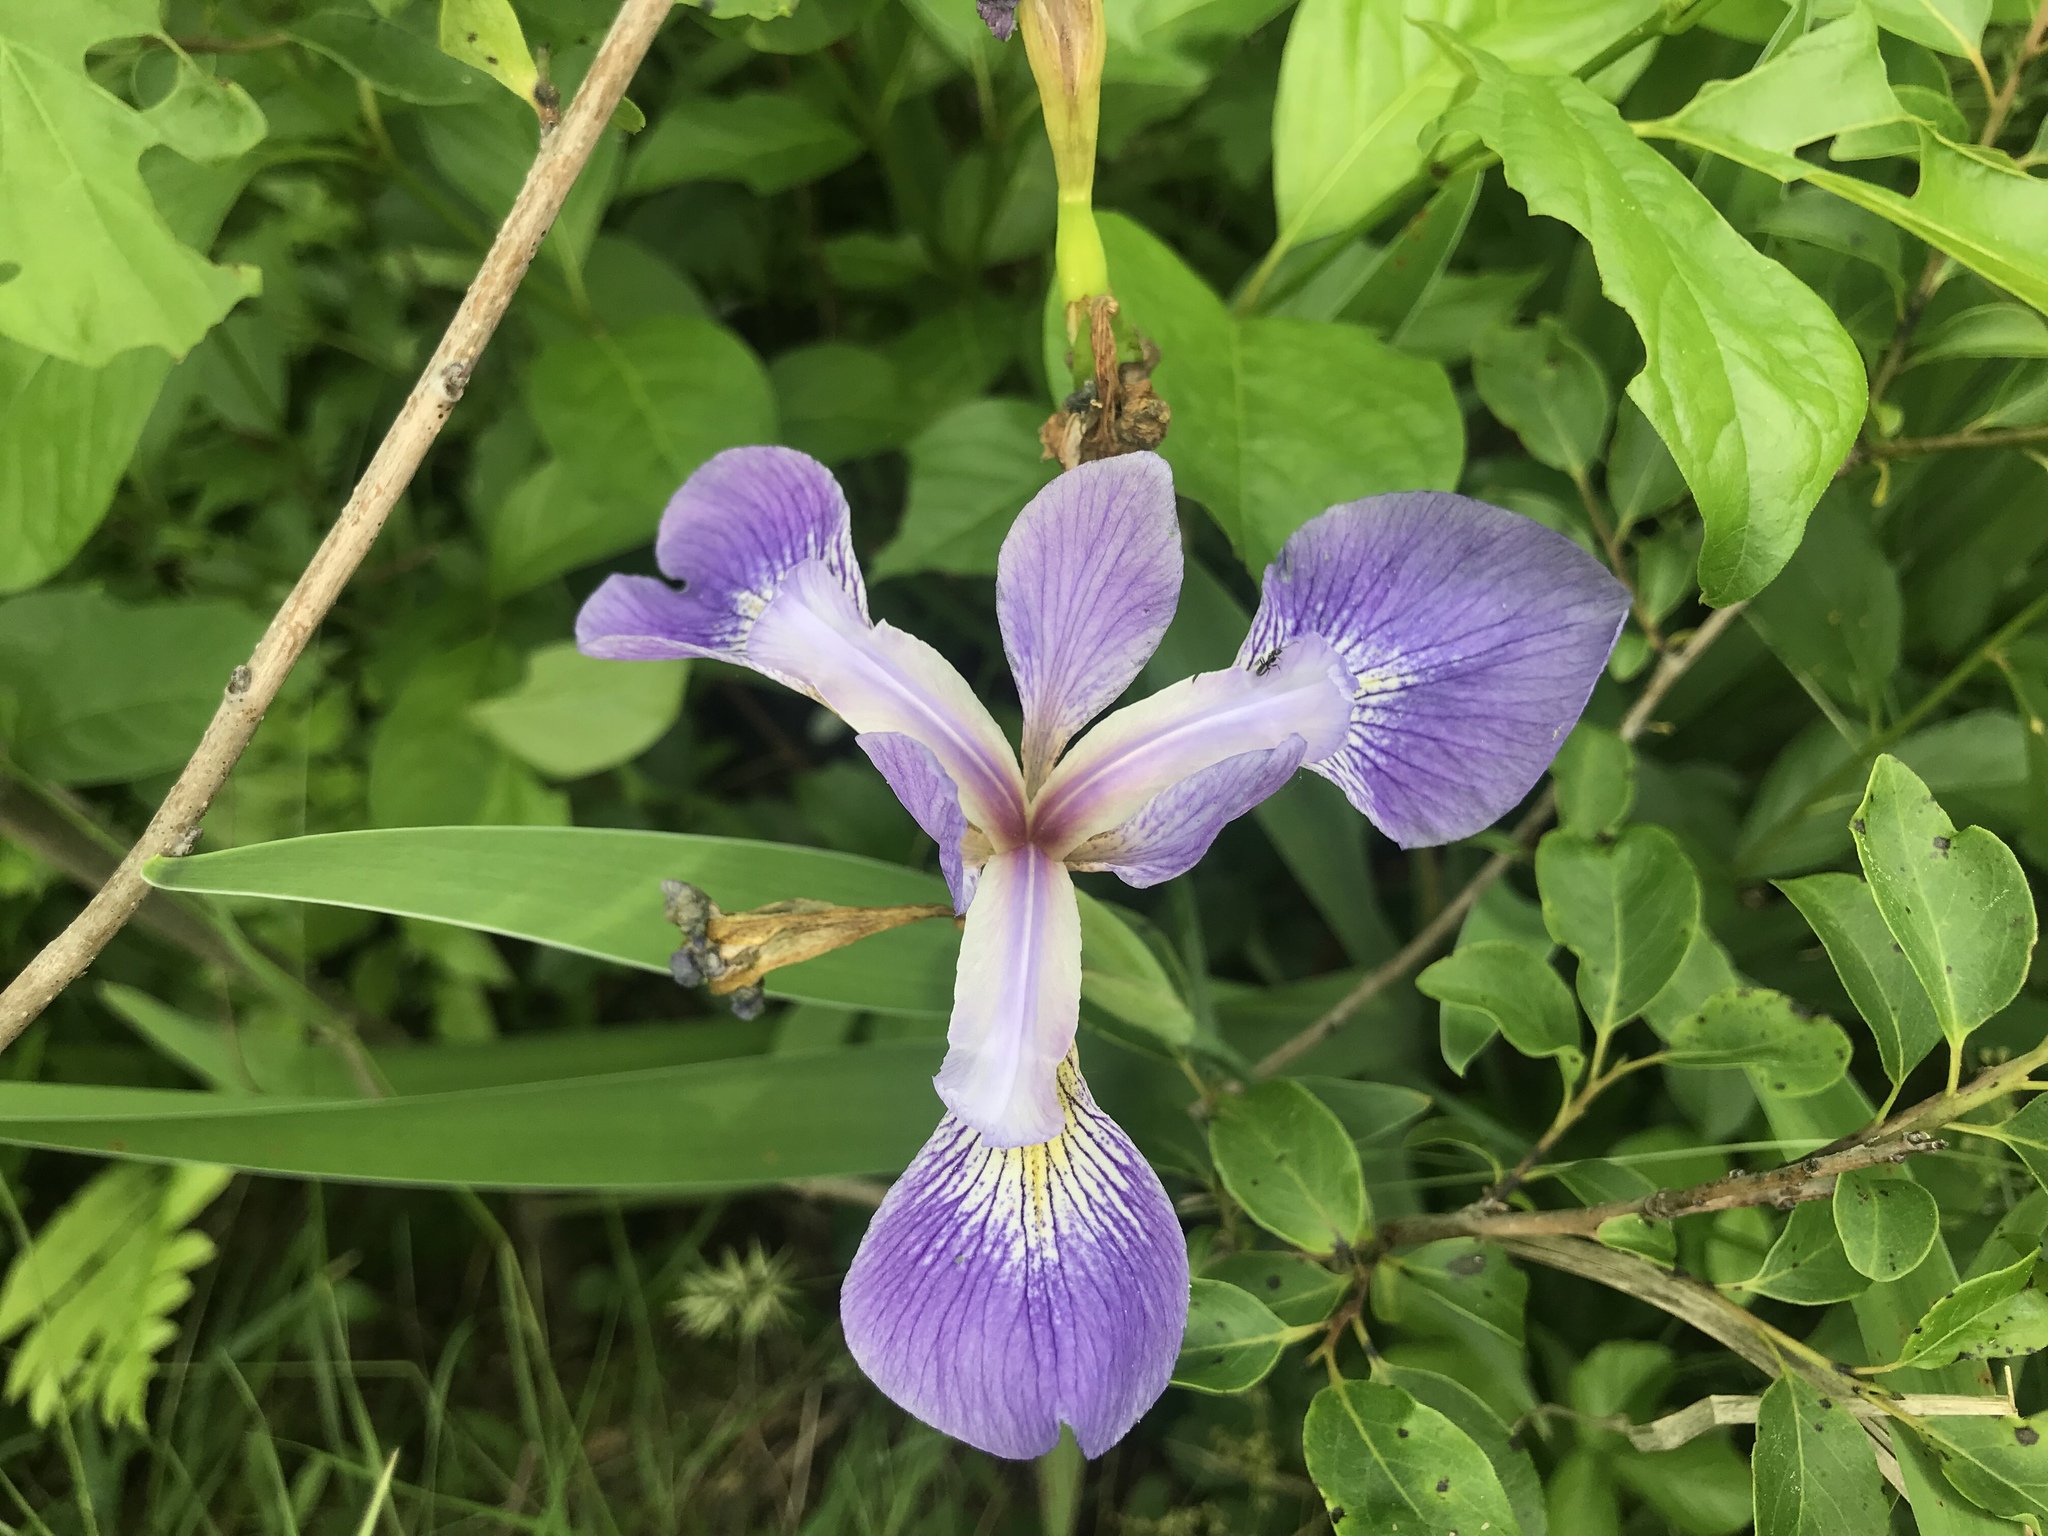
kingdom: Plantae
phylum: Tracheophyta
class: Liliopsida
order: Asparagales
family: Iridaceae
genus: Iris
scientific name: Iris versicolor
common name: Purple iris
